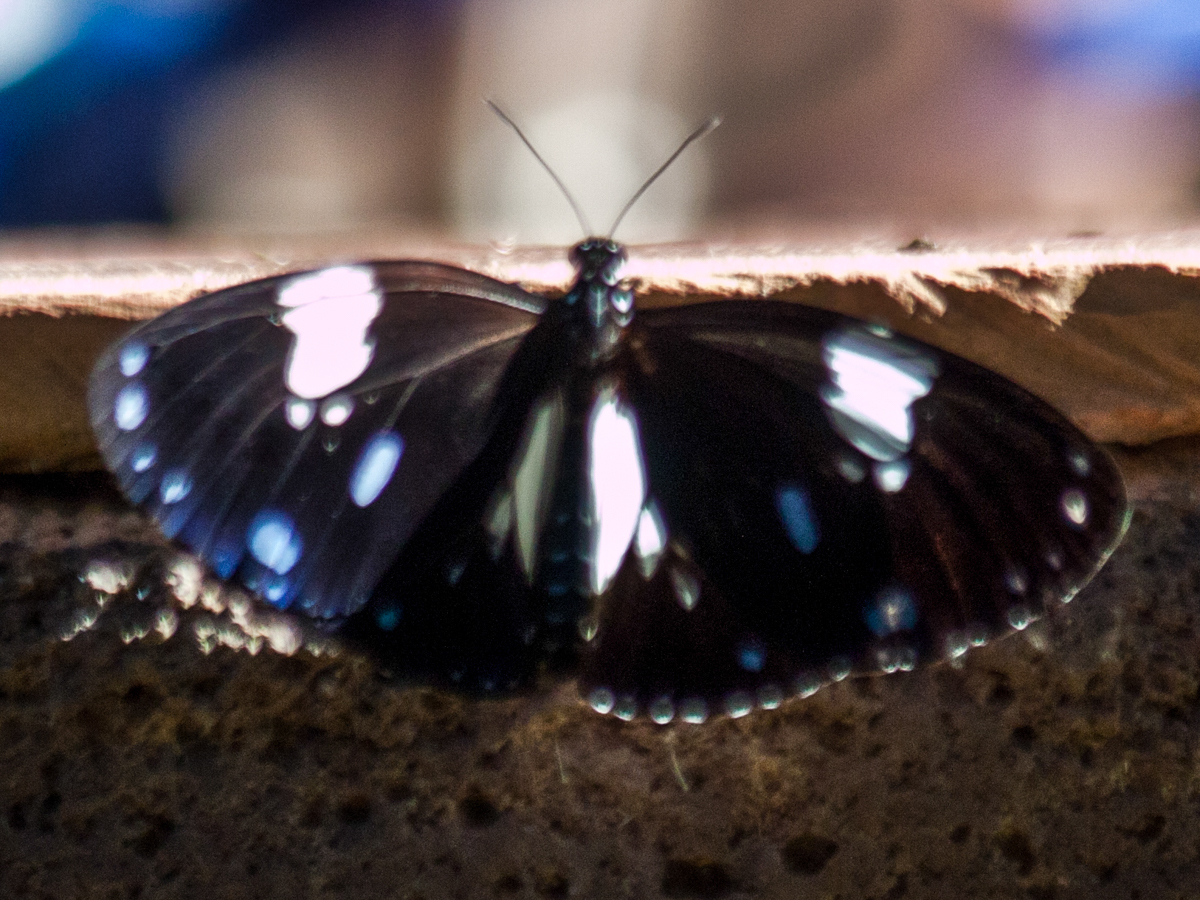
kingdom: Animalia
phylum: Arthropoda
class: Insecta
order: Lepidoptera
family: Nymphalidae
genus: Euploea
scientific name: Euploea radamanthus
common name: Magpie crow butterfly
